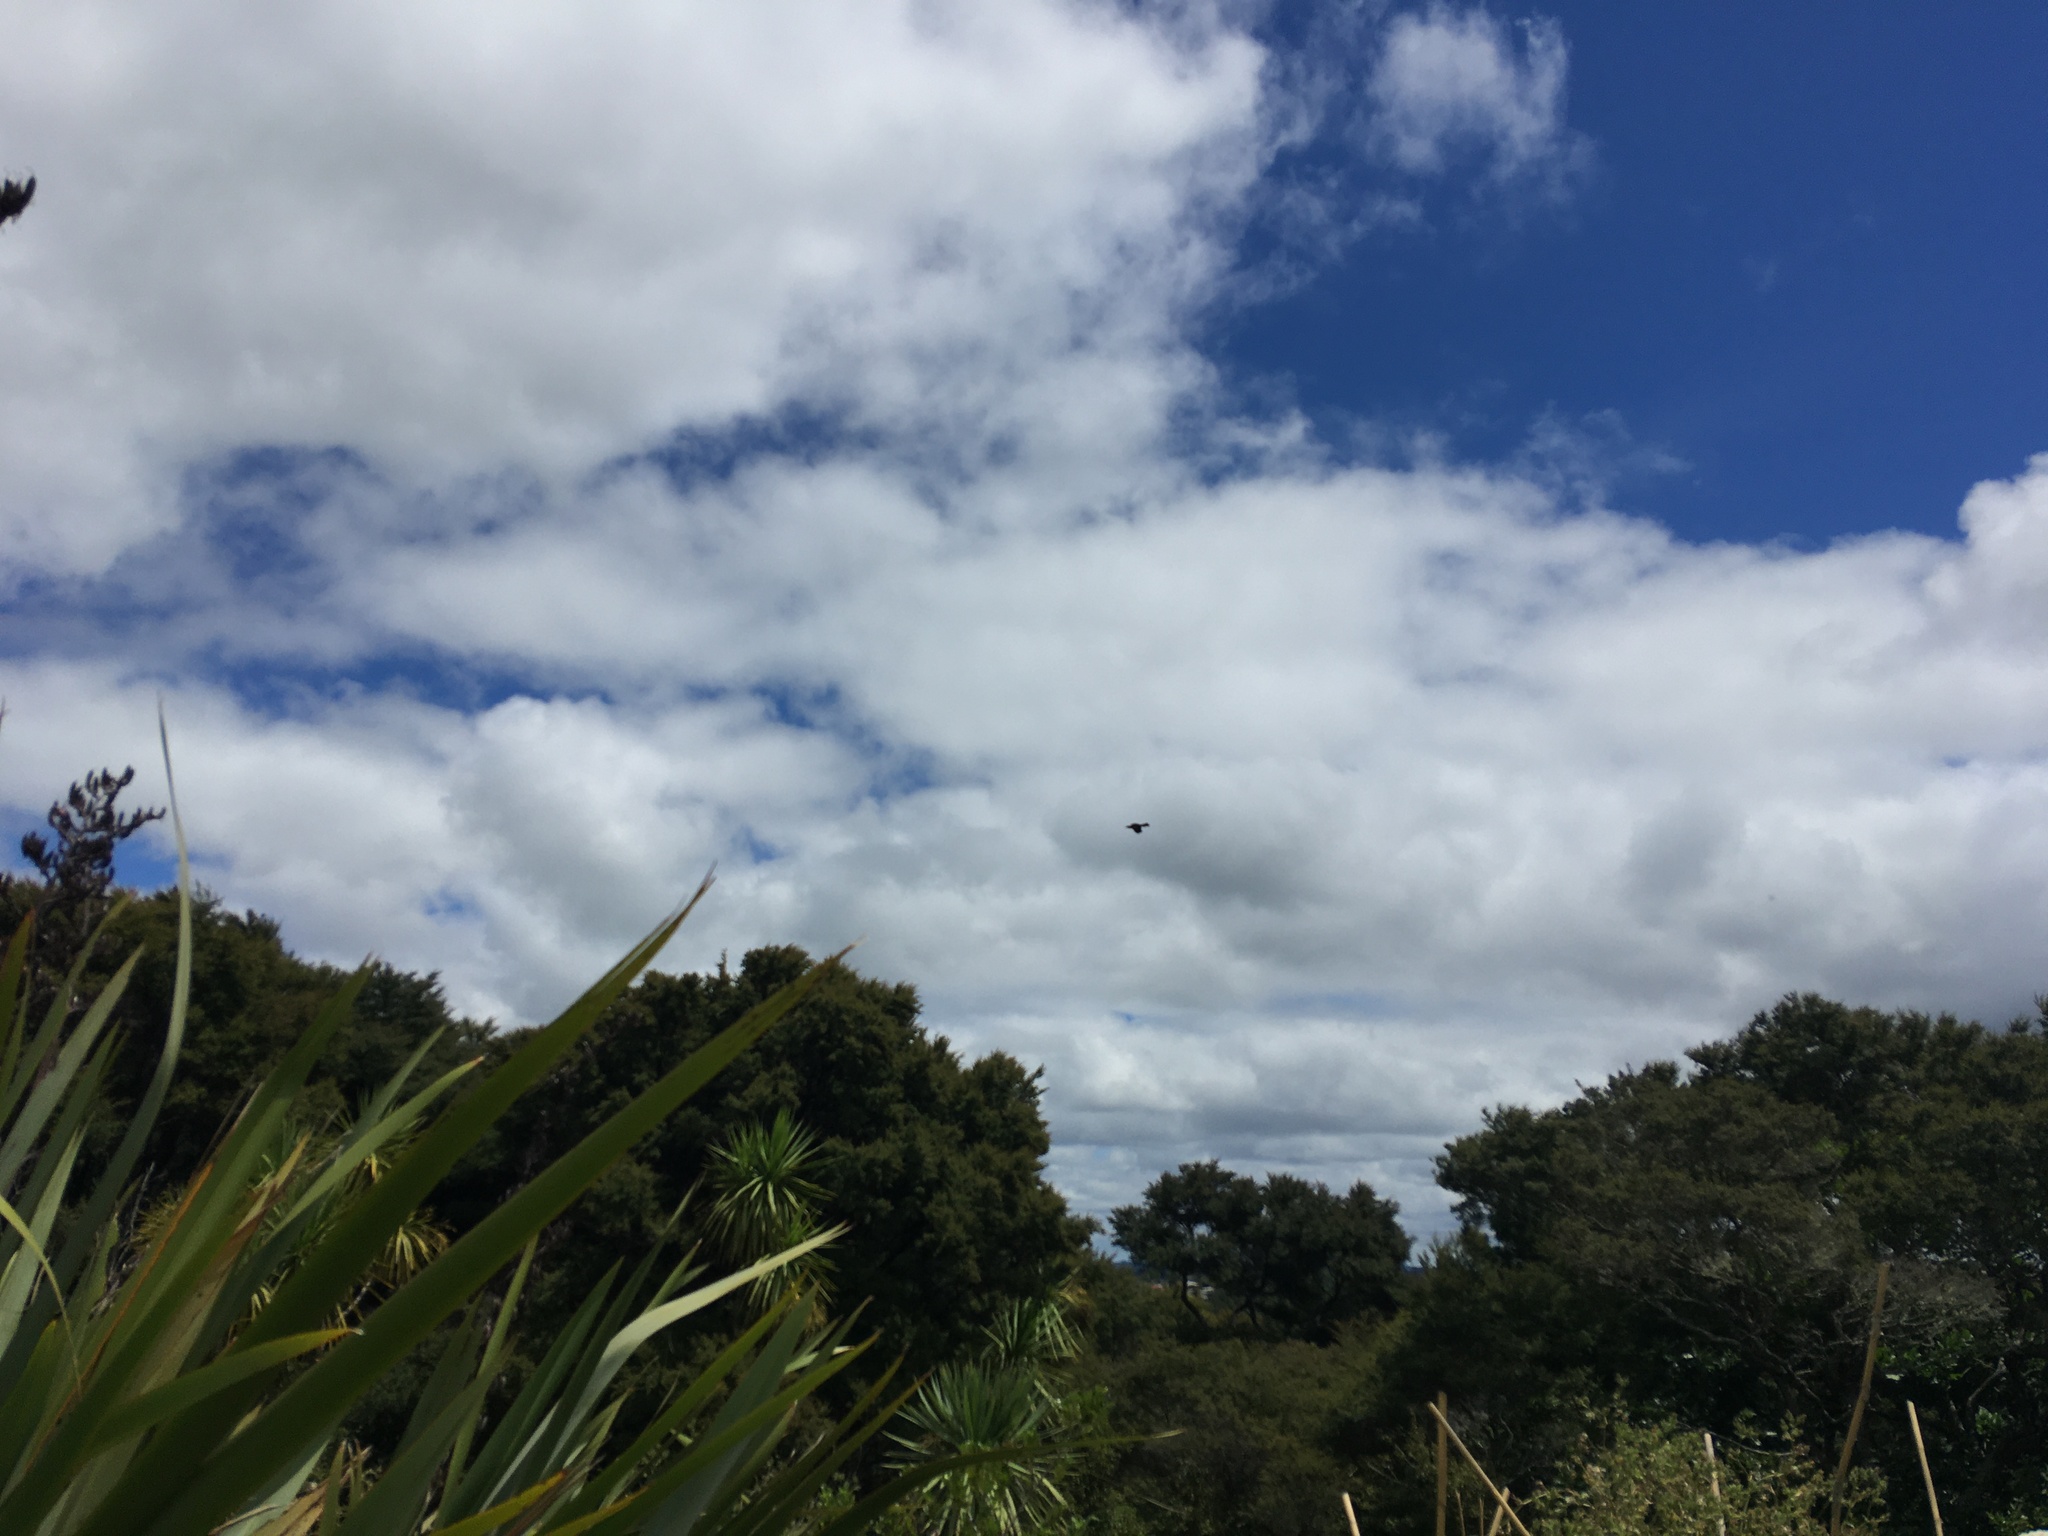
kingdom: Animalia
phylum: Chordata
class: Aves
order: Columbiformes
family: Columbidae
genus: Hemiphaga
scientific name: Hemiphaga novaeseelandiae
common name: New zealand pigeon
